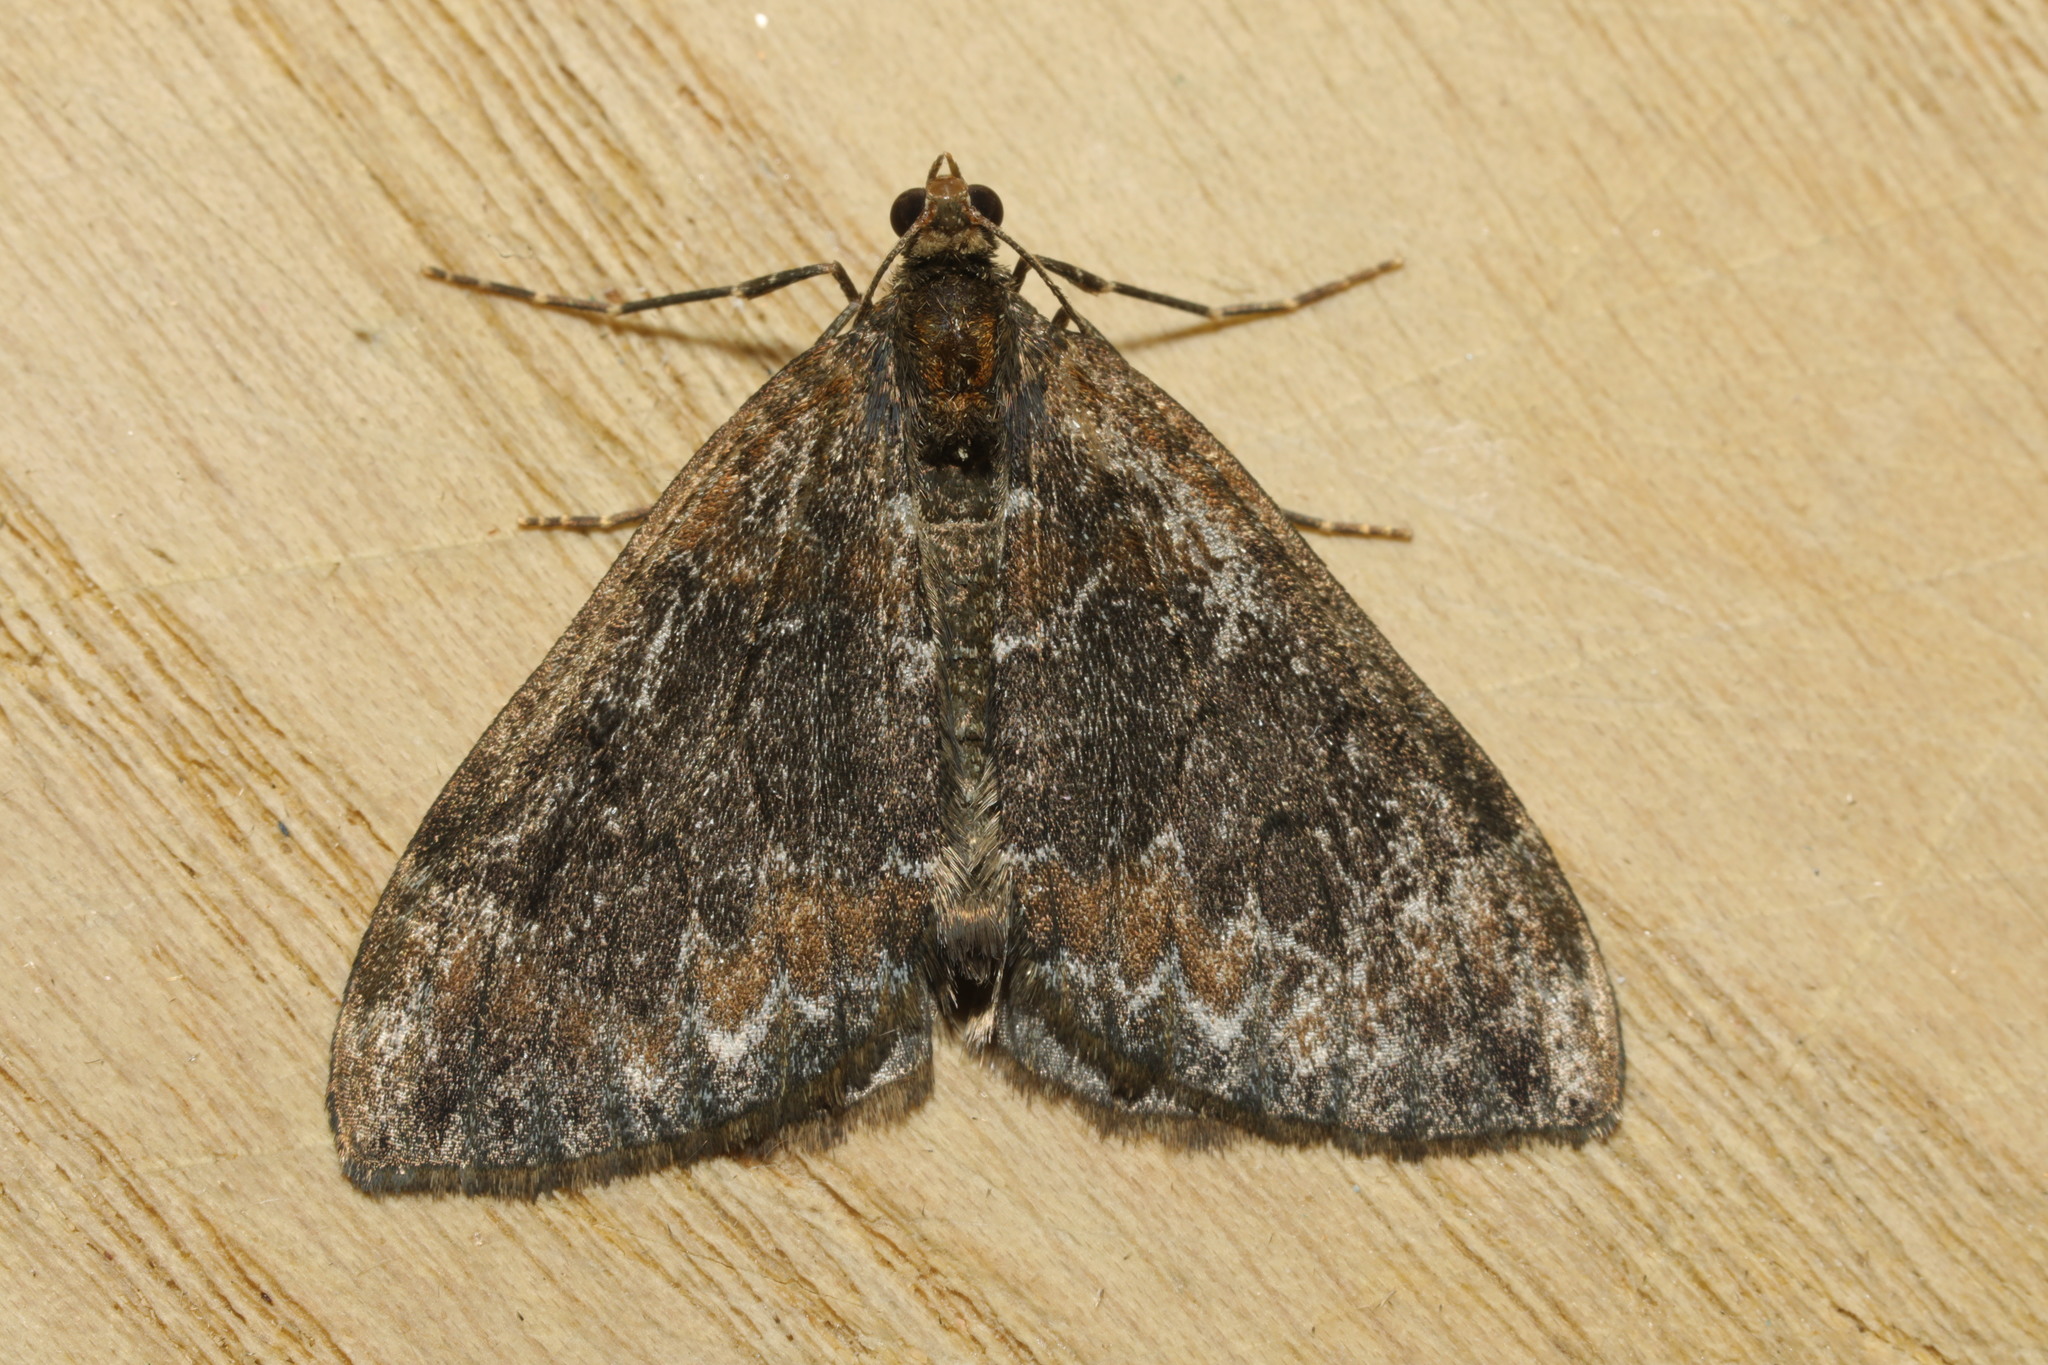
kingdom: Animalia
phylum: Arthropoda
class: Insecta
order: Lepidoptera
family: Geometridae
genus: Dysstroma
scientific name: Dysstroma truncata
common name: Common marbled carpet
